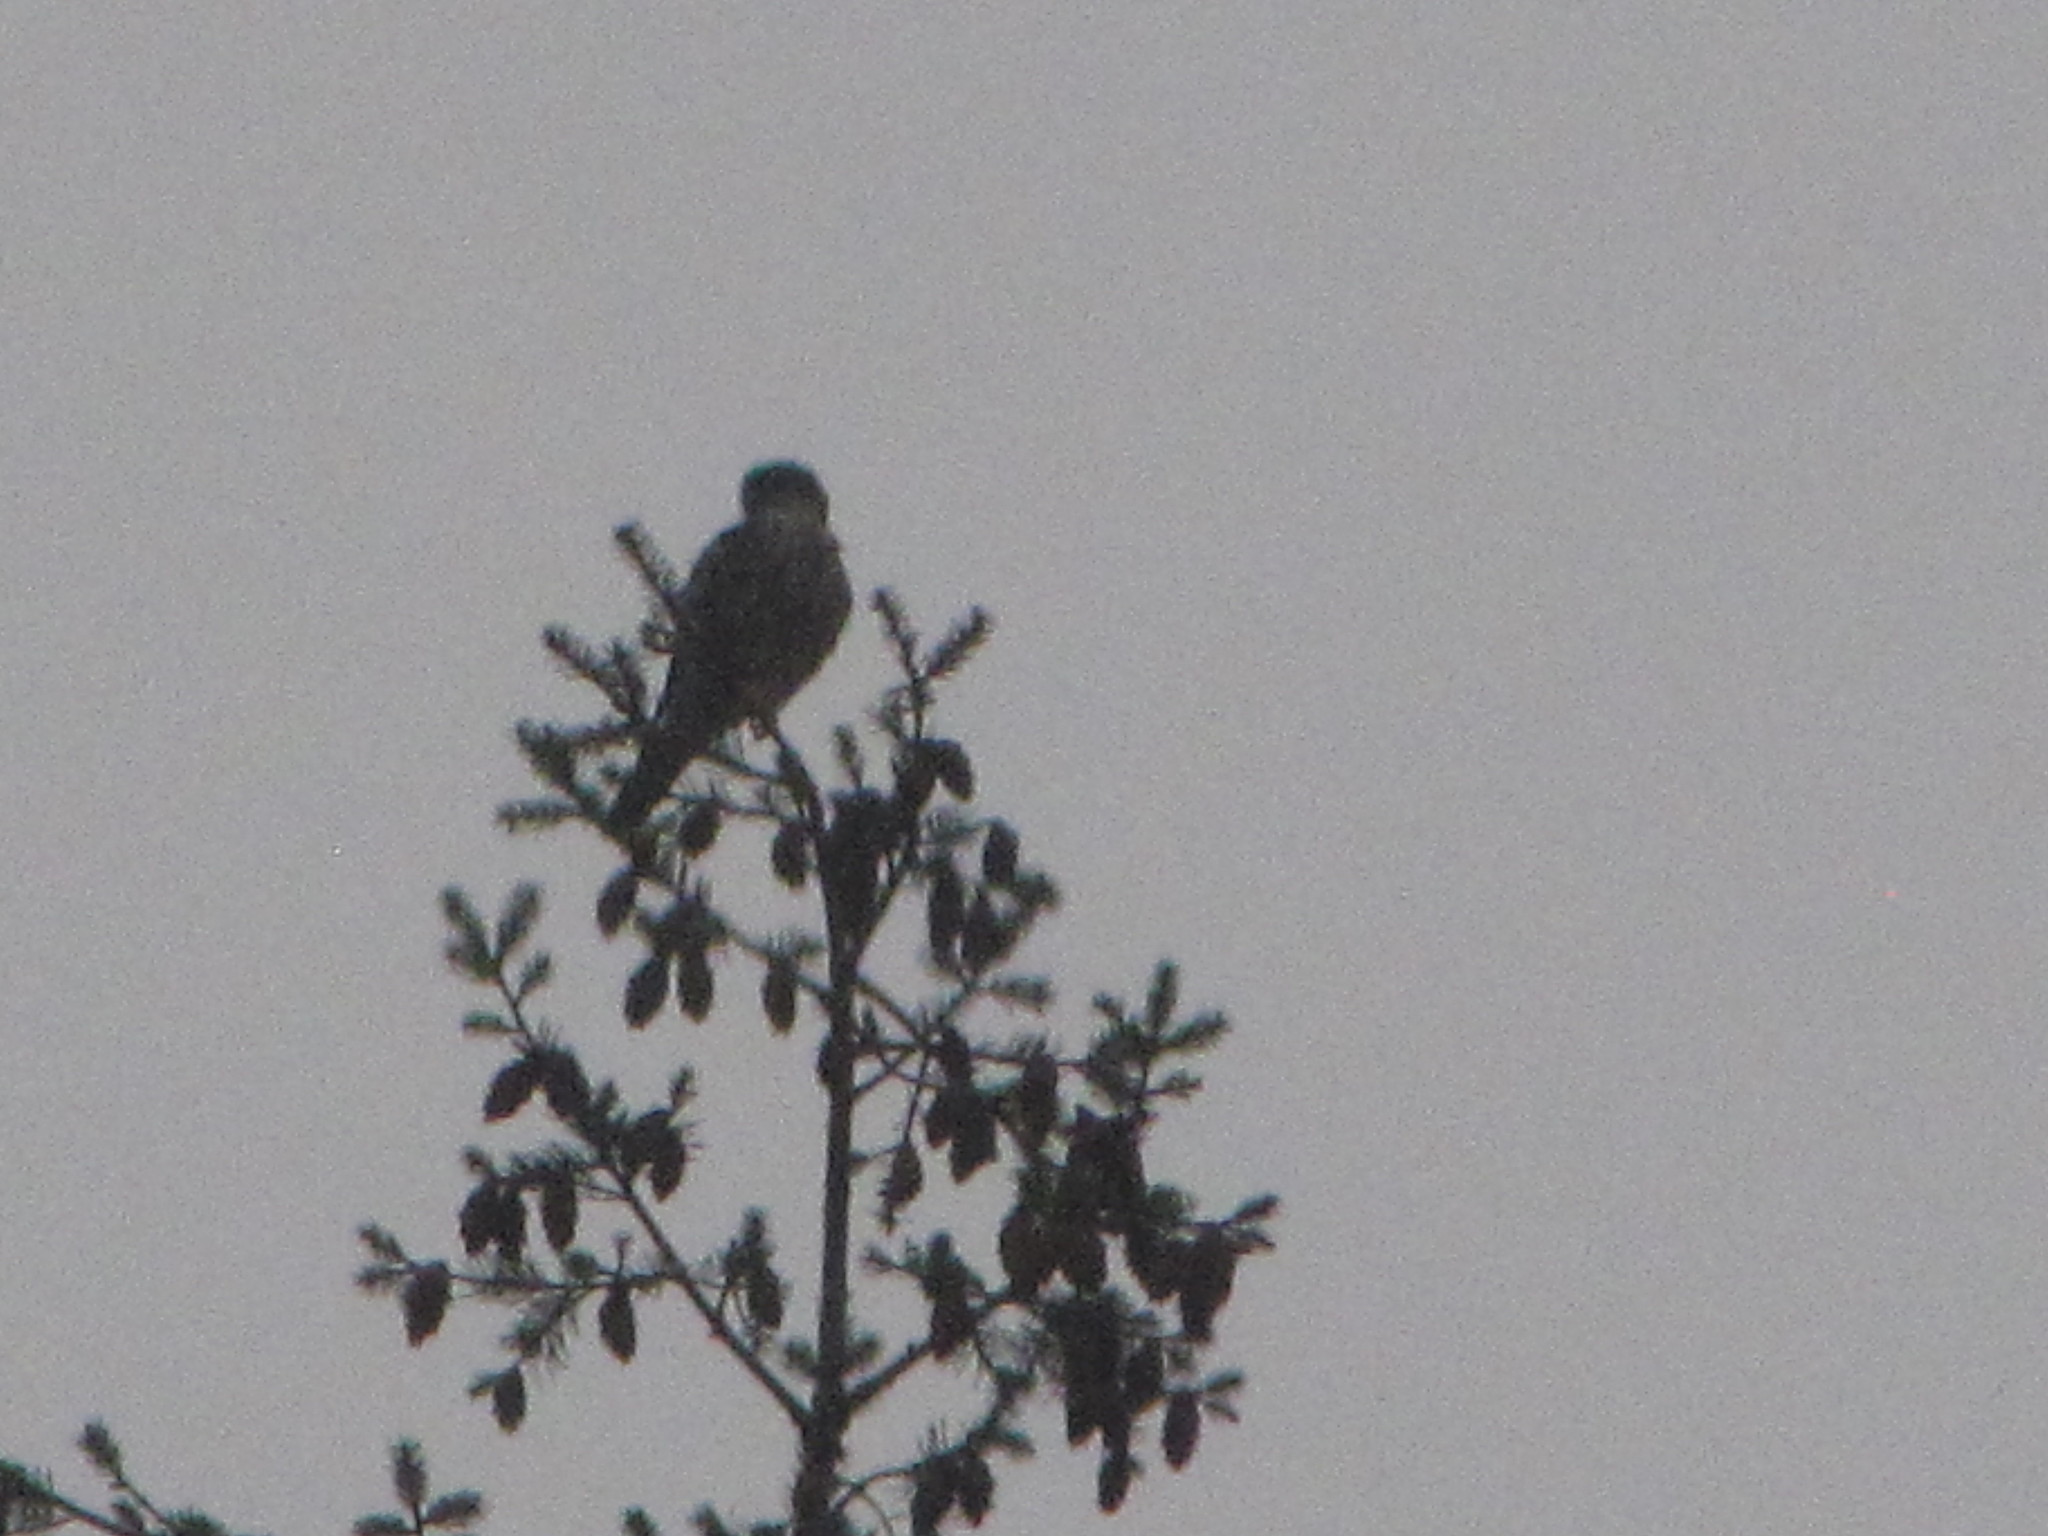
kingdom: Animalia
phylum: Chordata
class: Aves
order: Falconiformes
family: Falconidae
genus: Falco
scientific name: Falco columbarius
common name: Merlin
